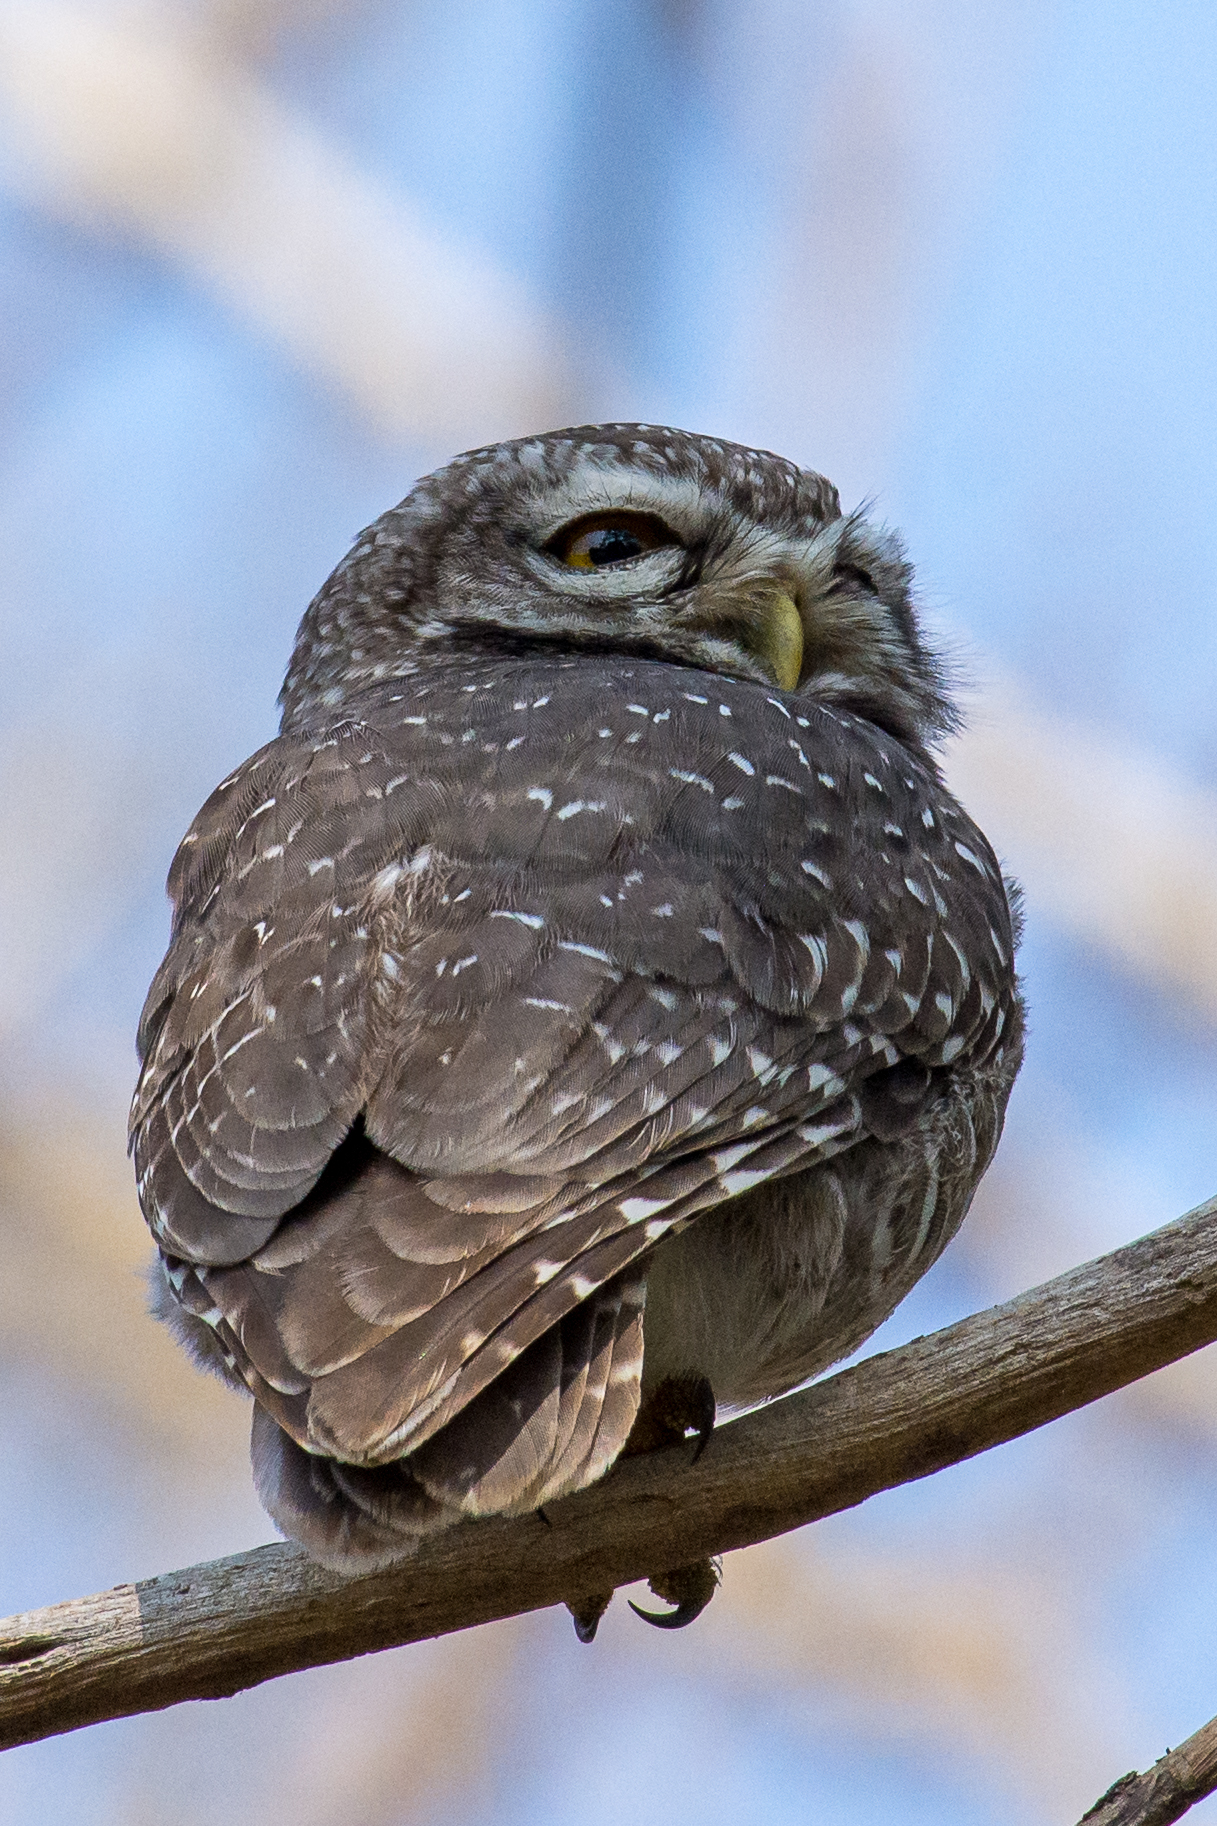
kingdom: Animalia
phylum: Chordata
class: Aves
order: Strigiformes
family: Strigidae
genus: Athene
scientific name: Athene brama
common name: Spotted owlet
